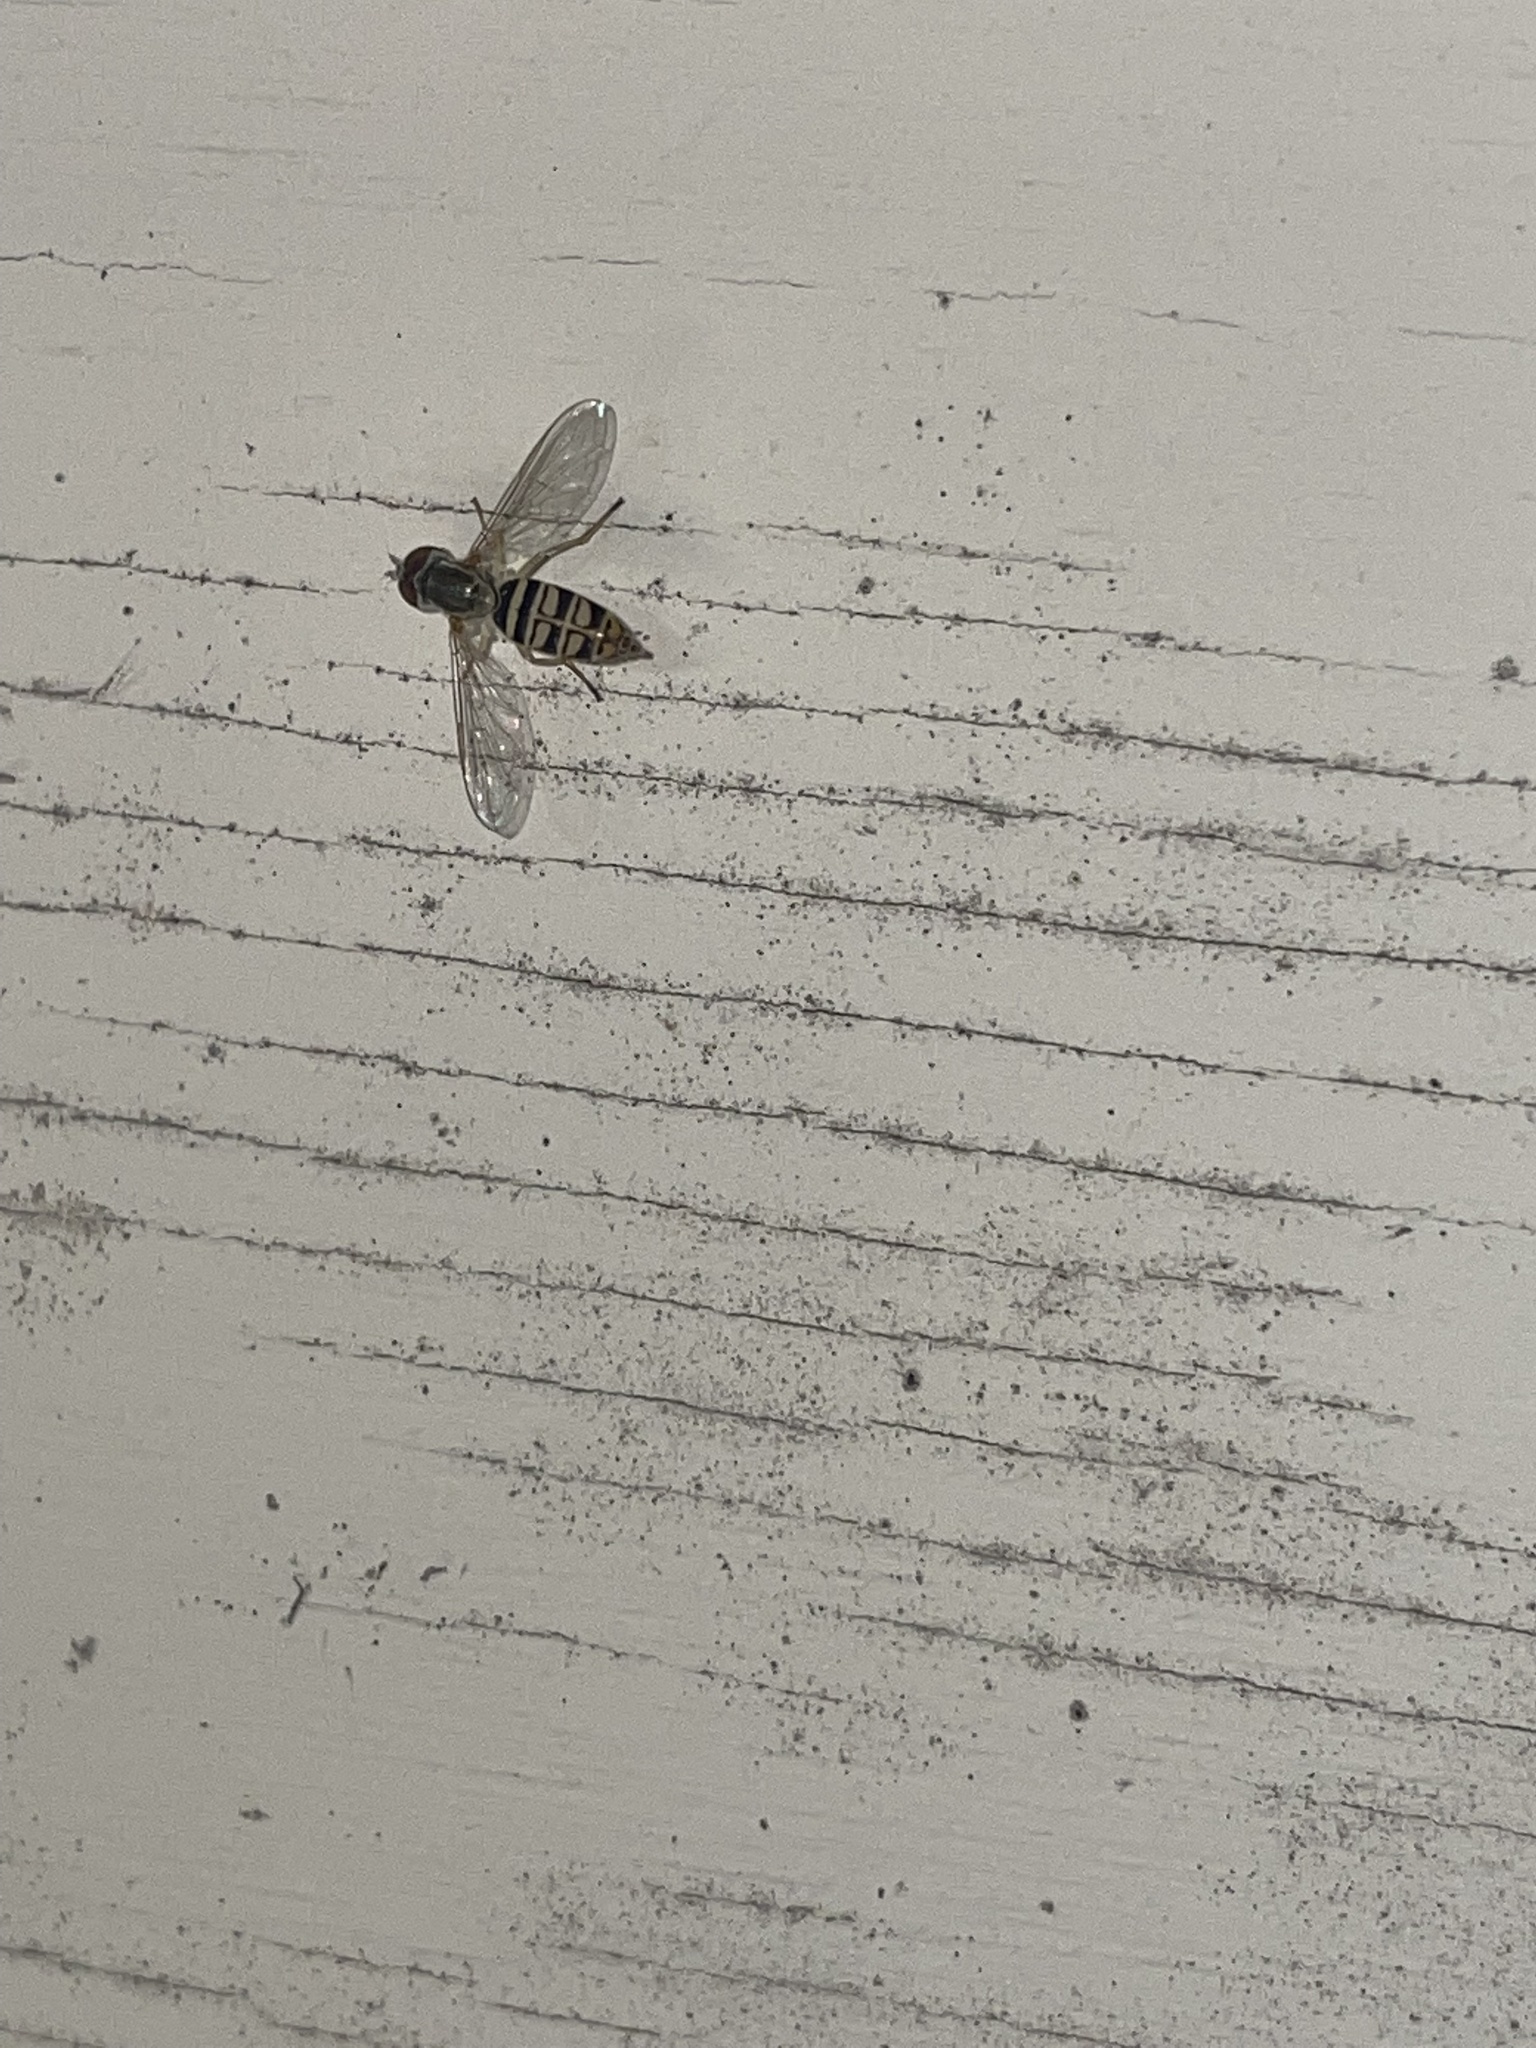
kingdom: Animalia
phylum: Arthropoda
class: Insecta
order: Diptera
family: Syrphidae
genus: Toxomerus
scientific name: Toxomerus politus
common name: Maize calligrapher
